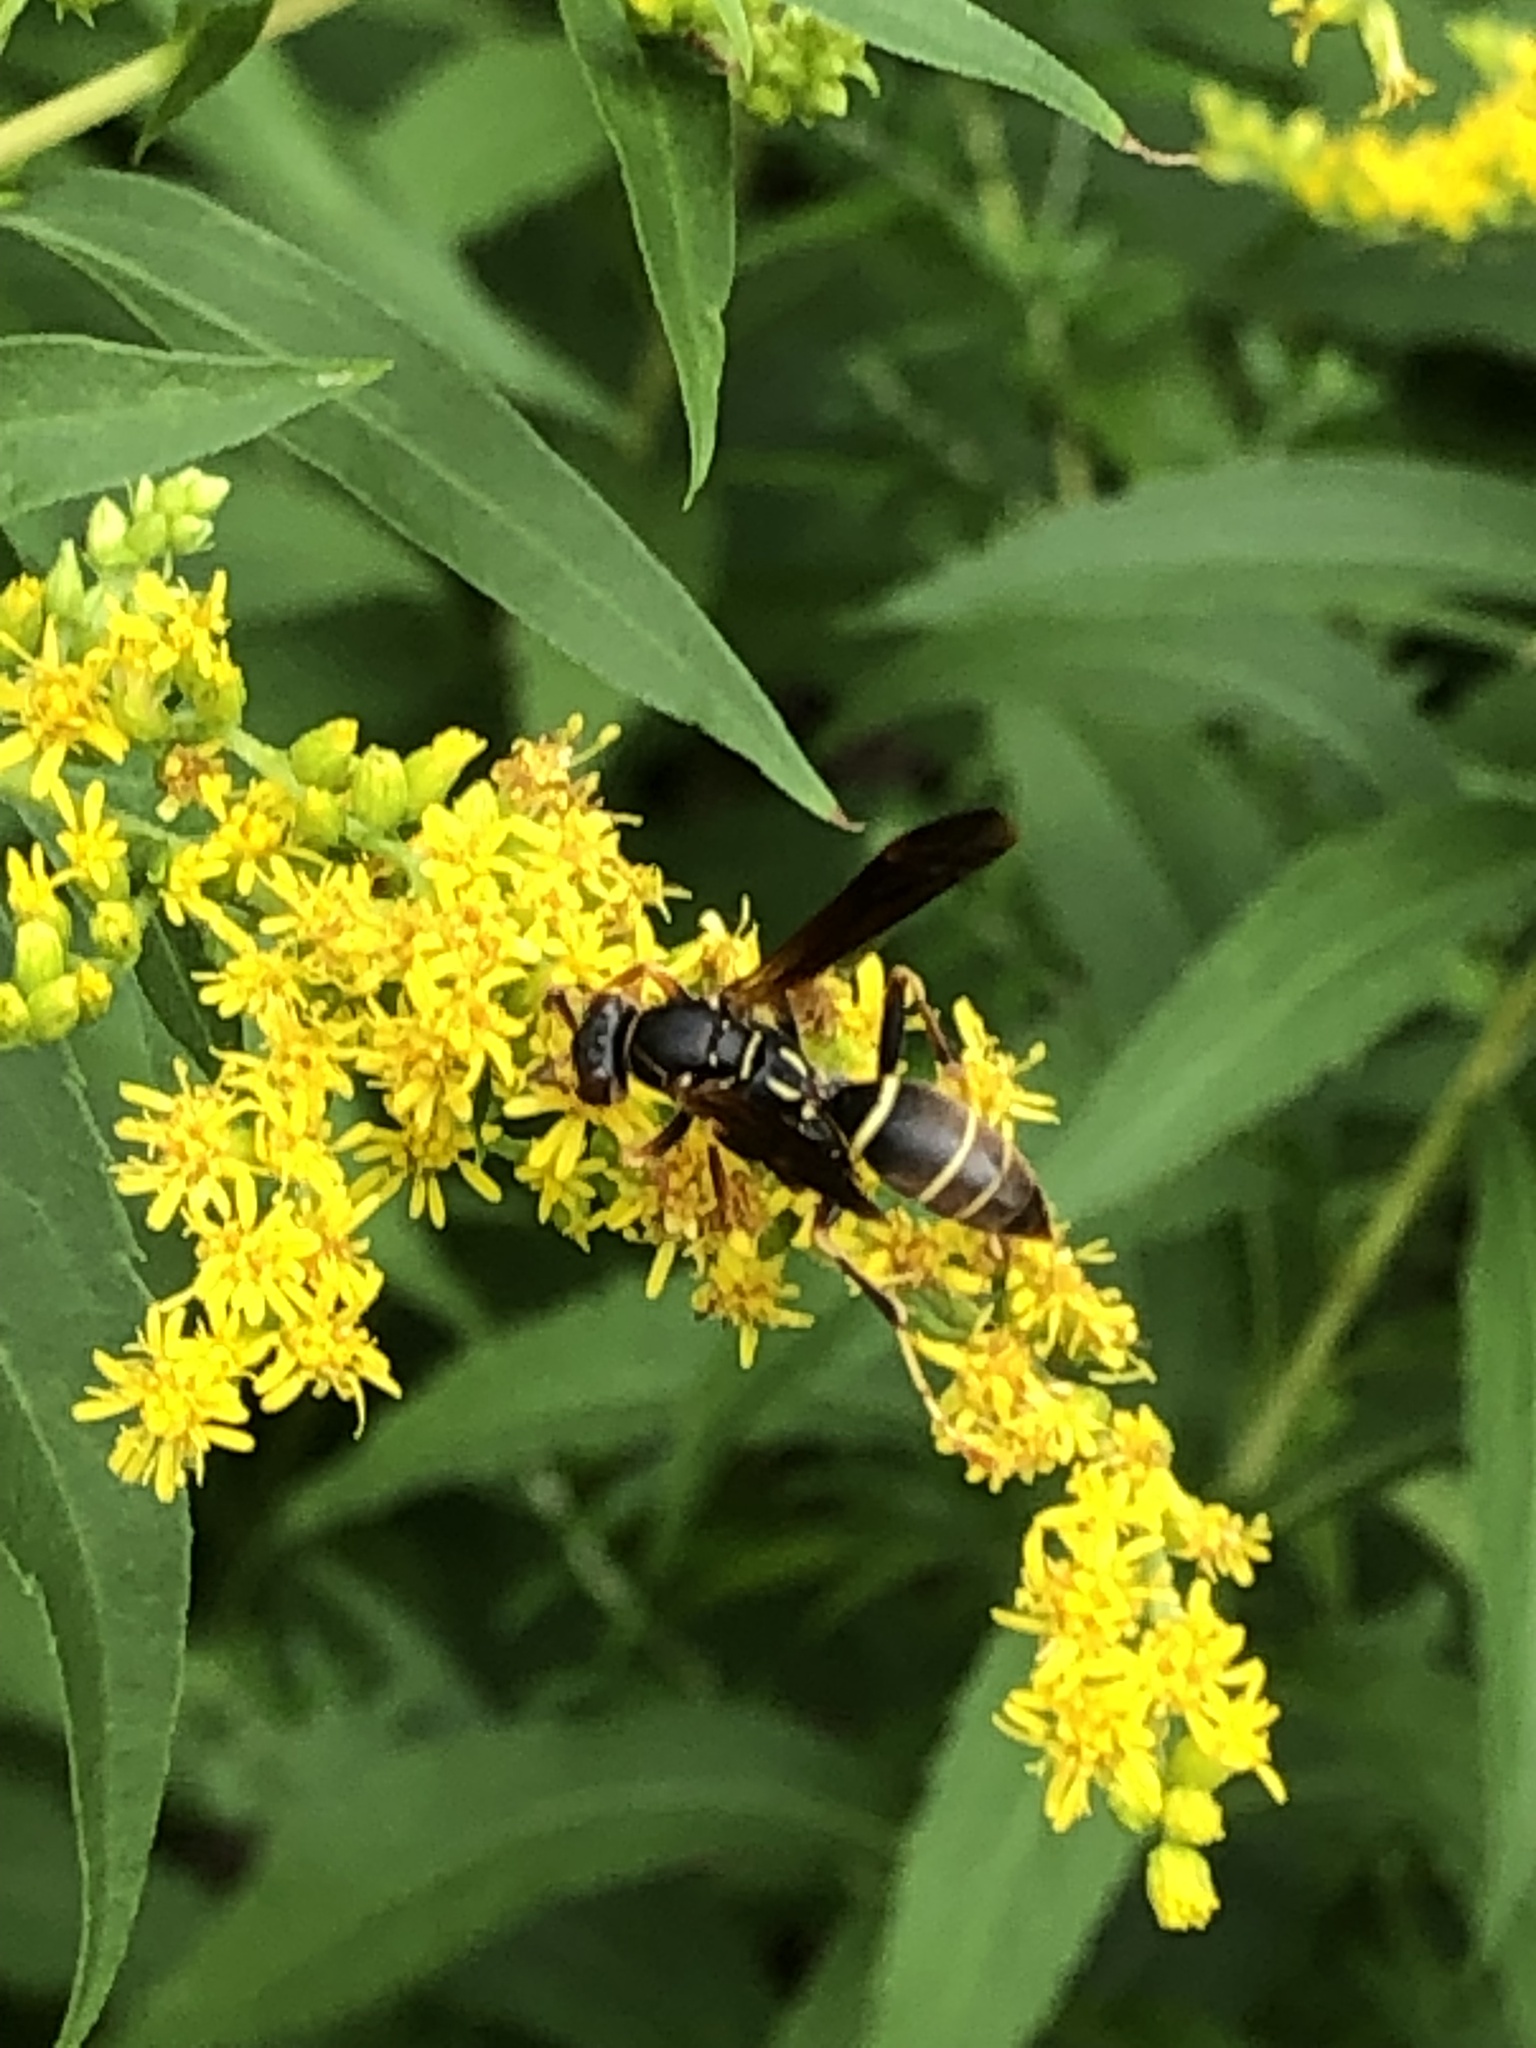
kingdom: Animalia
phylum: Arthropoda
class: Insecta
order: Hymenoptera
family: Eumenidae
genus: Polistes
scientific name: Polistes fuscatus
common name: Dark paper wasp
